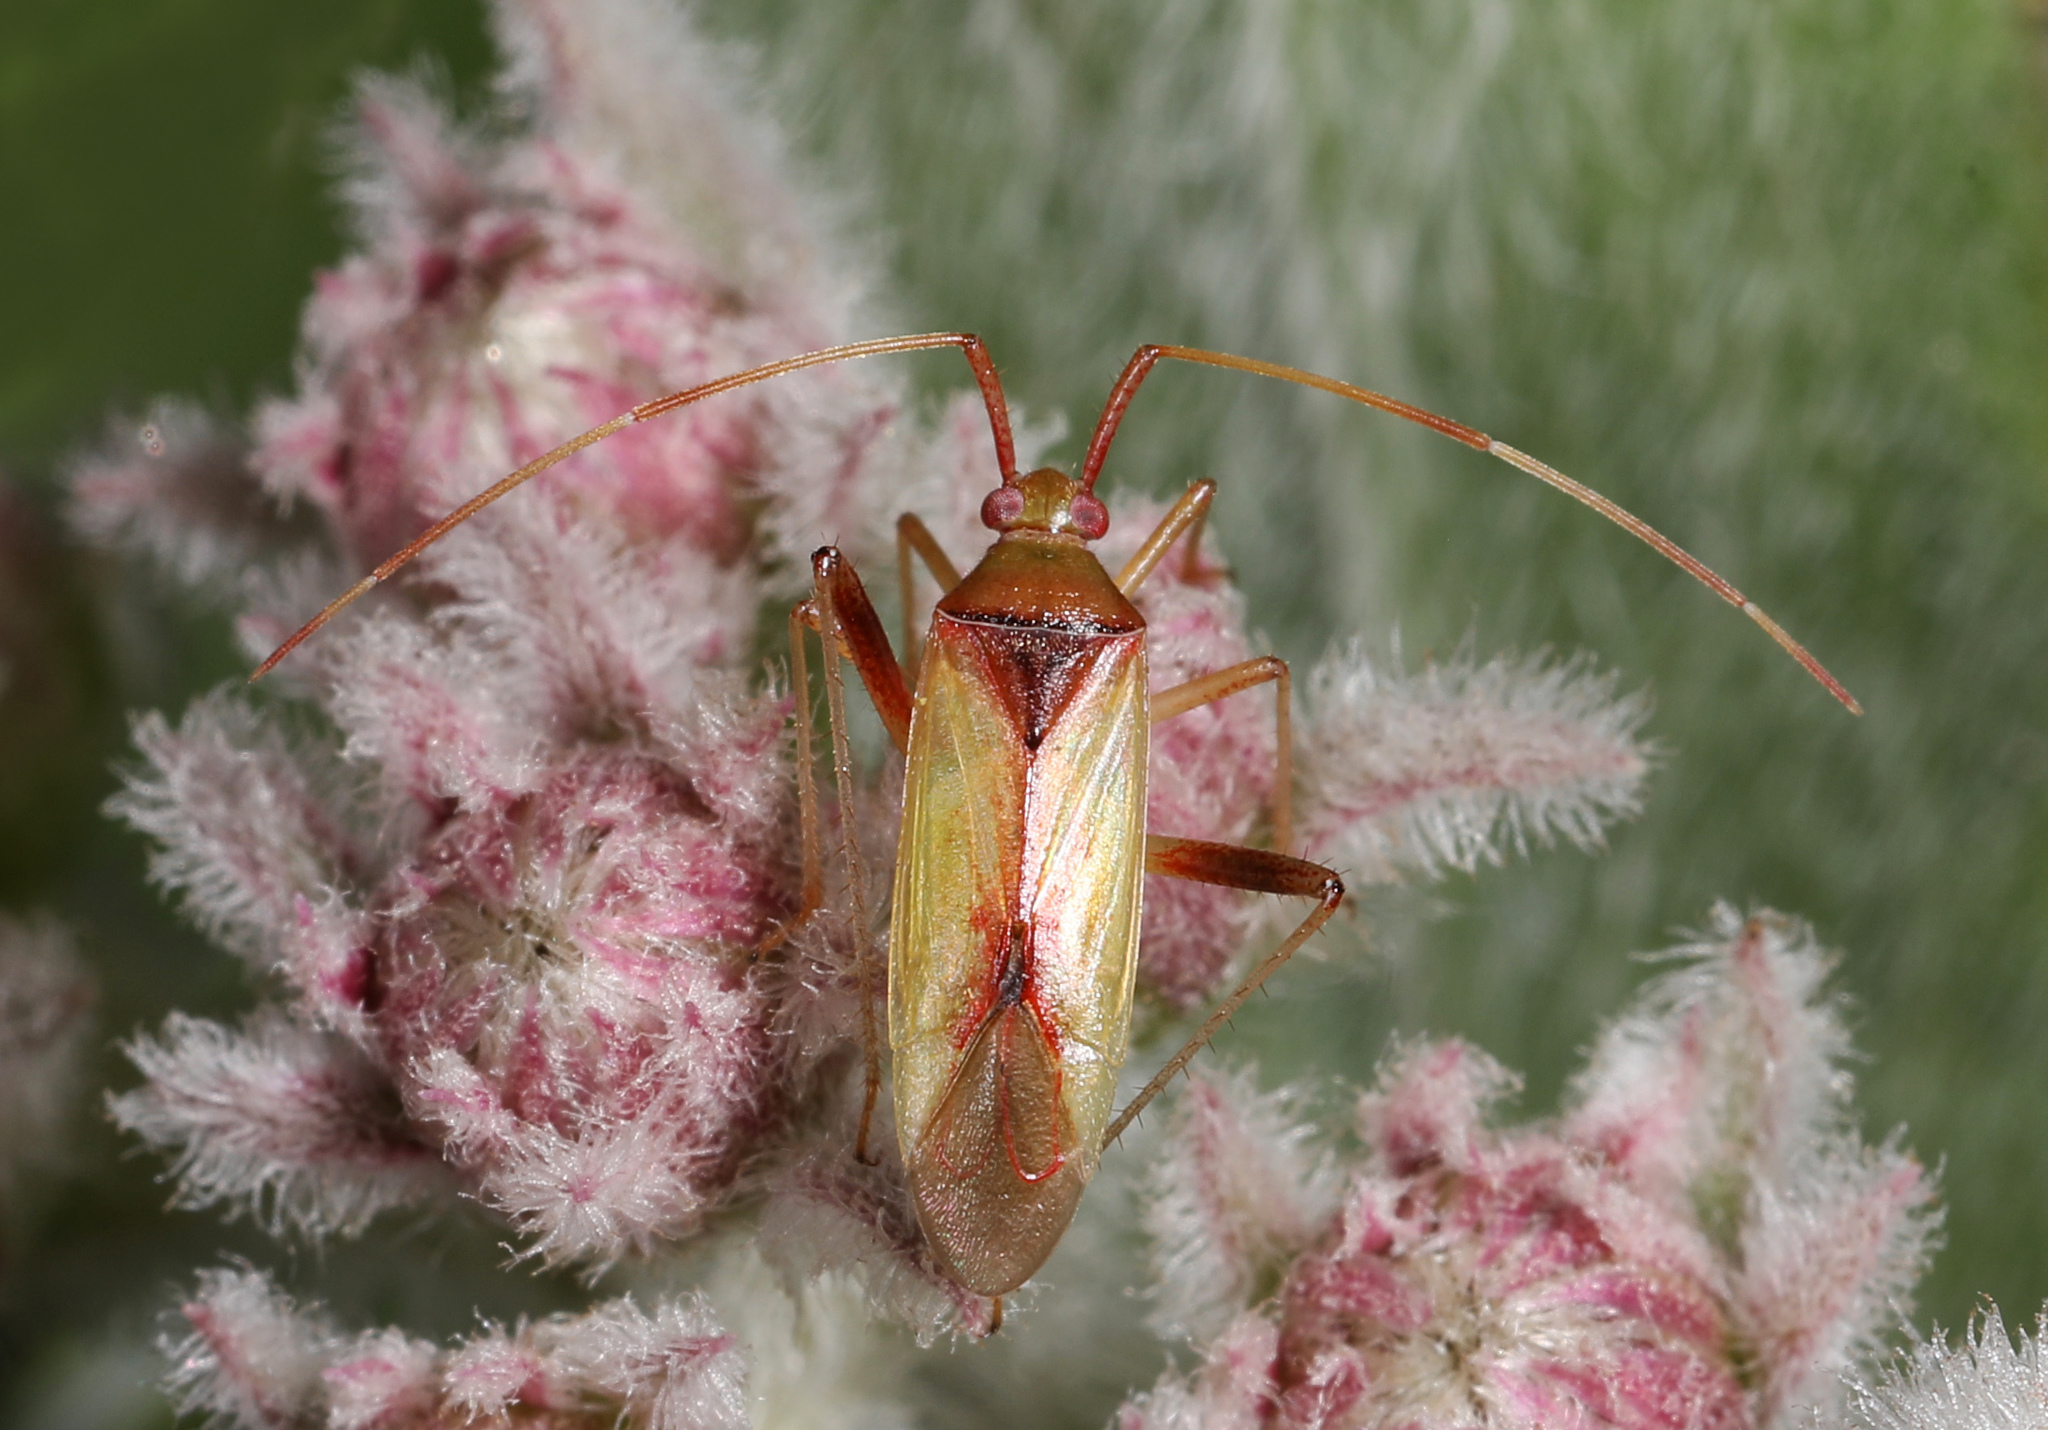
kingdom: Animalia
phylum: Arthropoda
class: Insecta
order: Hemiptera
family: Miridae
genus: Creontiades
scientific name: Creontiades rubrinervis
